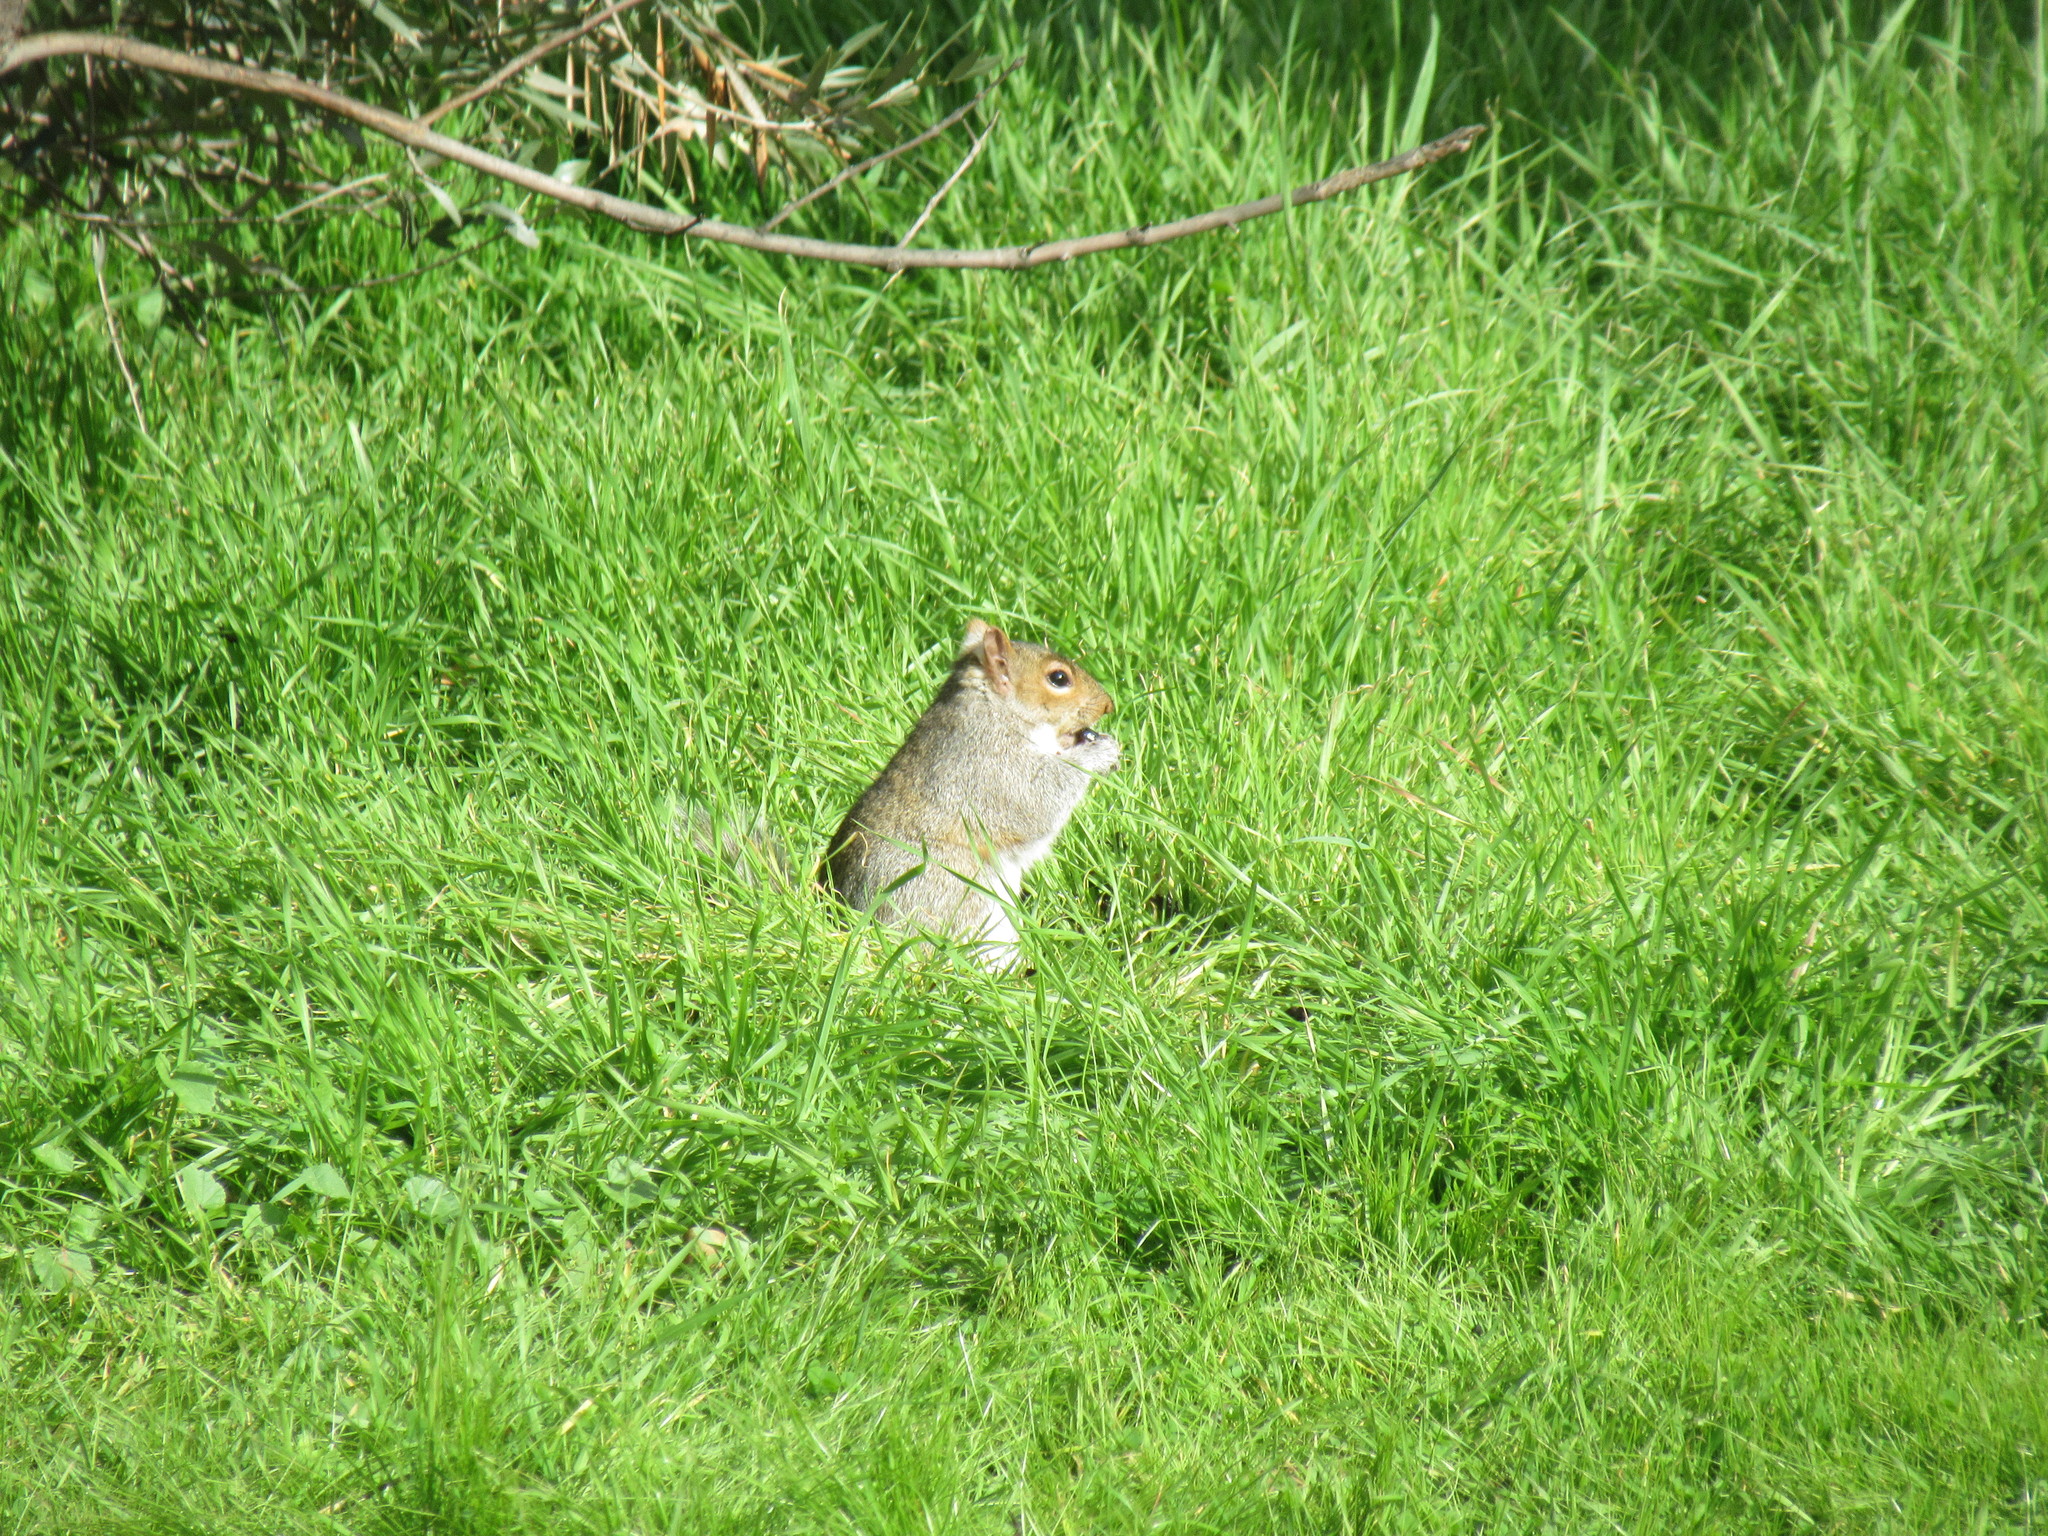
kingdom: Animalia
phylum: Chordata
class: Mammalia
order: Rodentia
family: Sciuridae
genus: Sciurus
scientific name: Sciurus carolinensis
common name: Eastern gray squirrel
